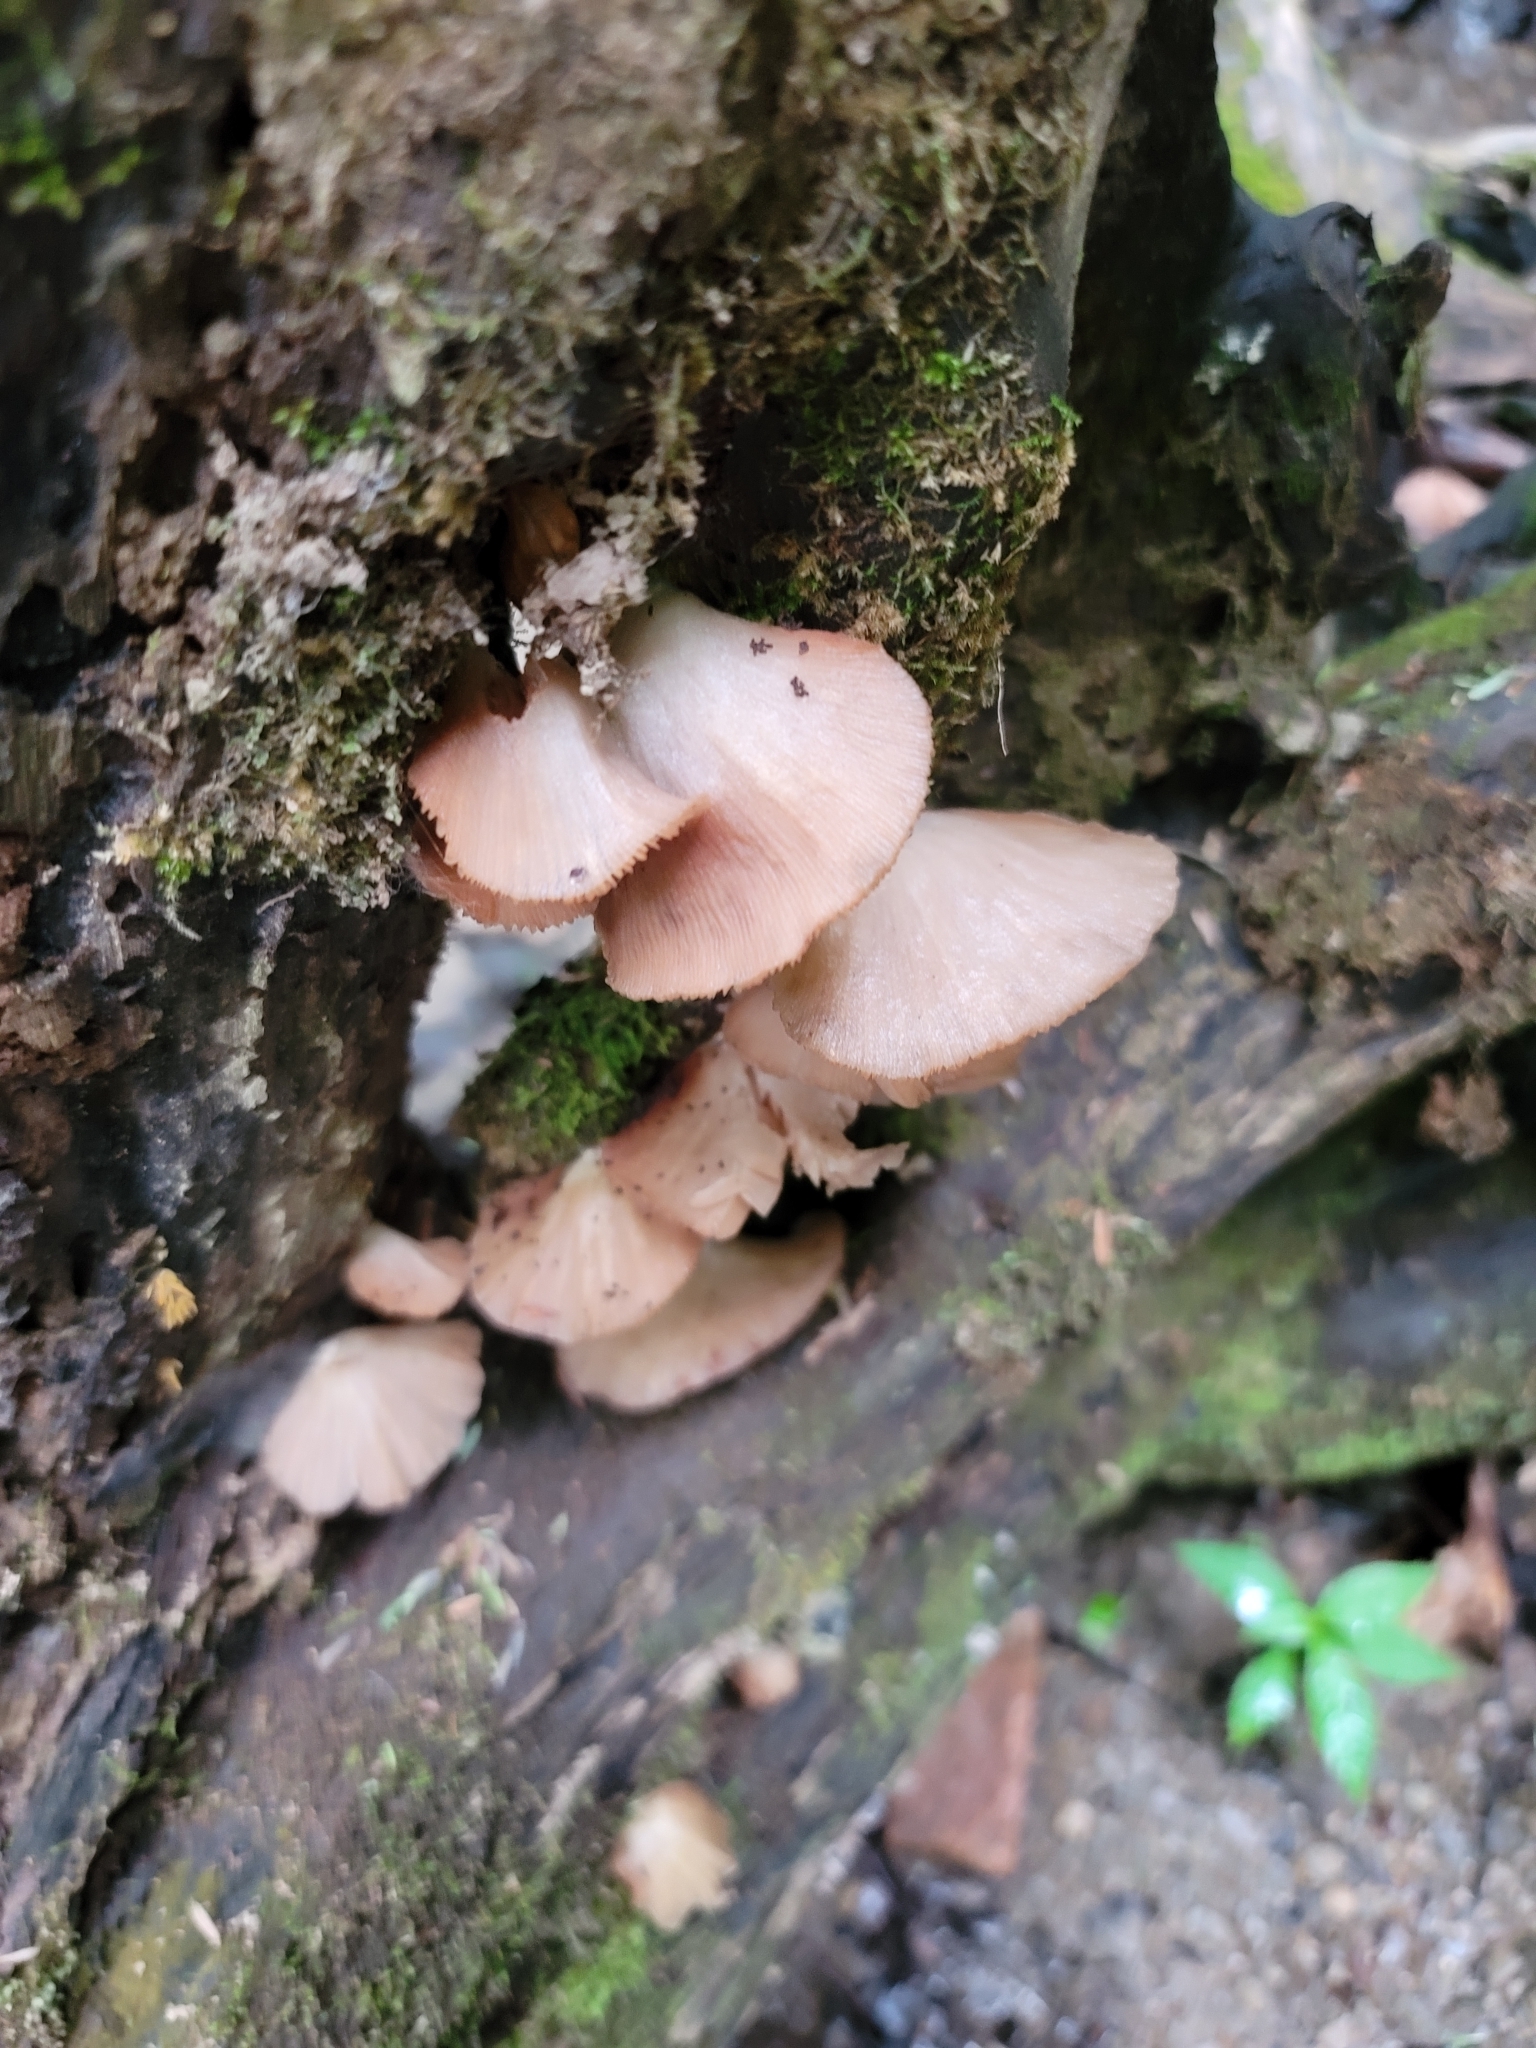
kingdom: Fungi
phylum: Basidiomycota
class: Agaricomycetes
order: Agaricales
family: Crepidotaceae
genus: Crepidotus
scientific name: Crepidotus applanatus
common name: Flat crep
